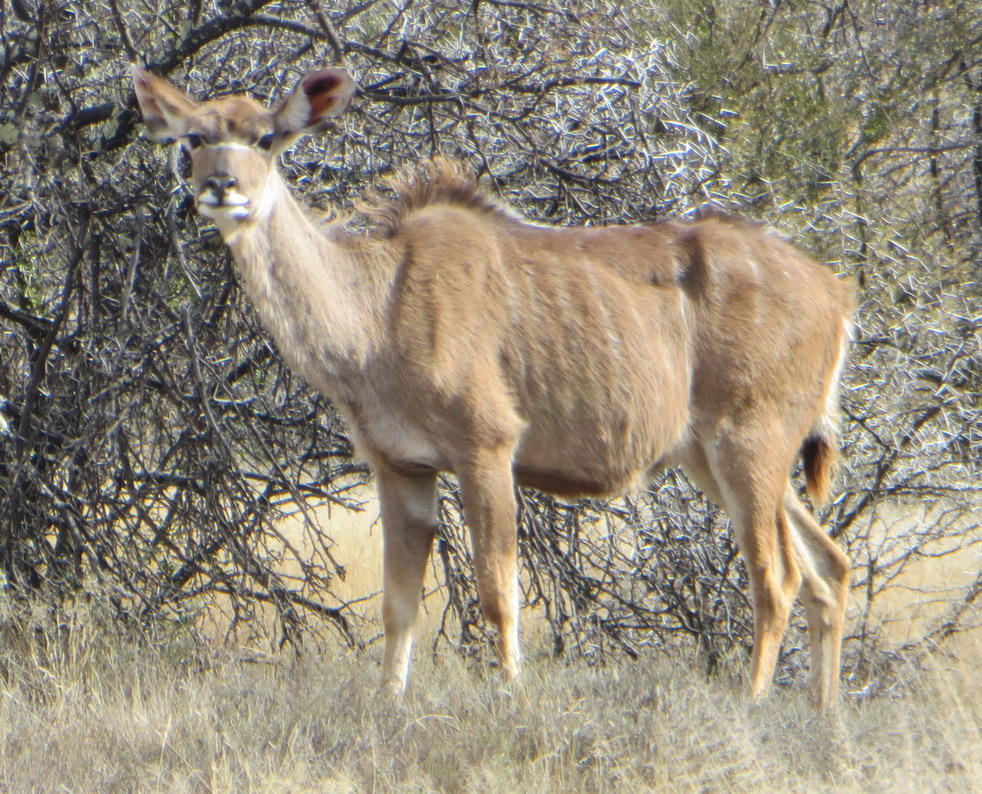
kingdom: Animalia
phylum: Chordata
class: Mammalia
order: Artiodactyla
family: Bovidae
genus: Tragelaphus
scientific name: Tragelaphus strepsiceros
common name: Greater kudu
